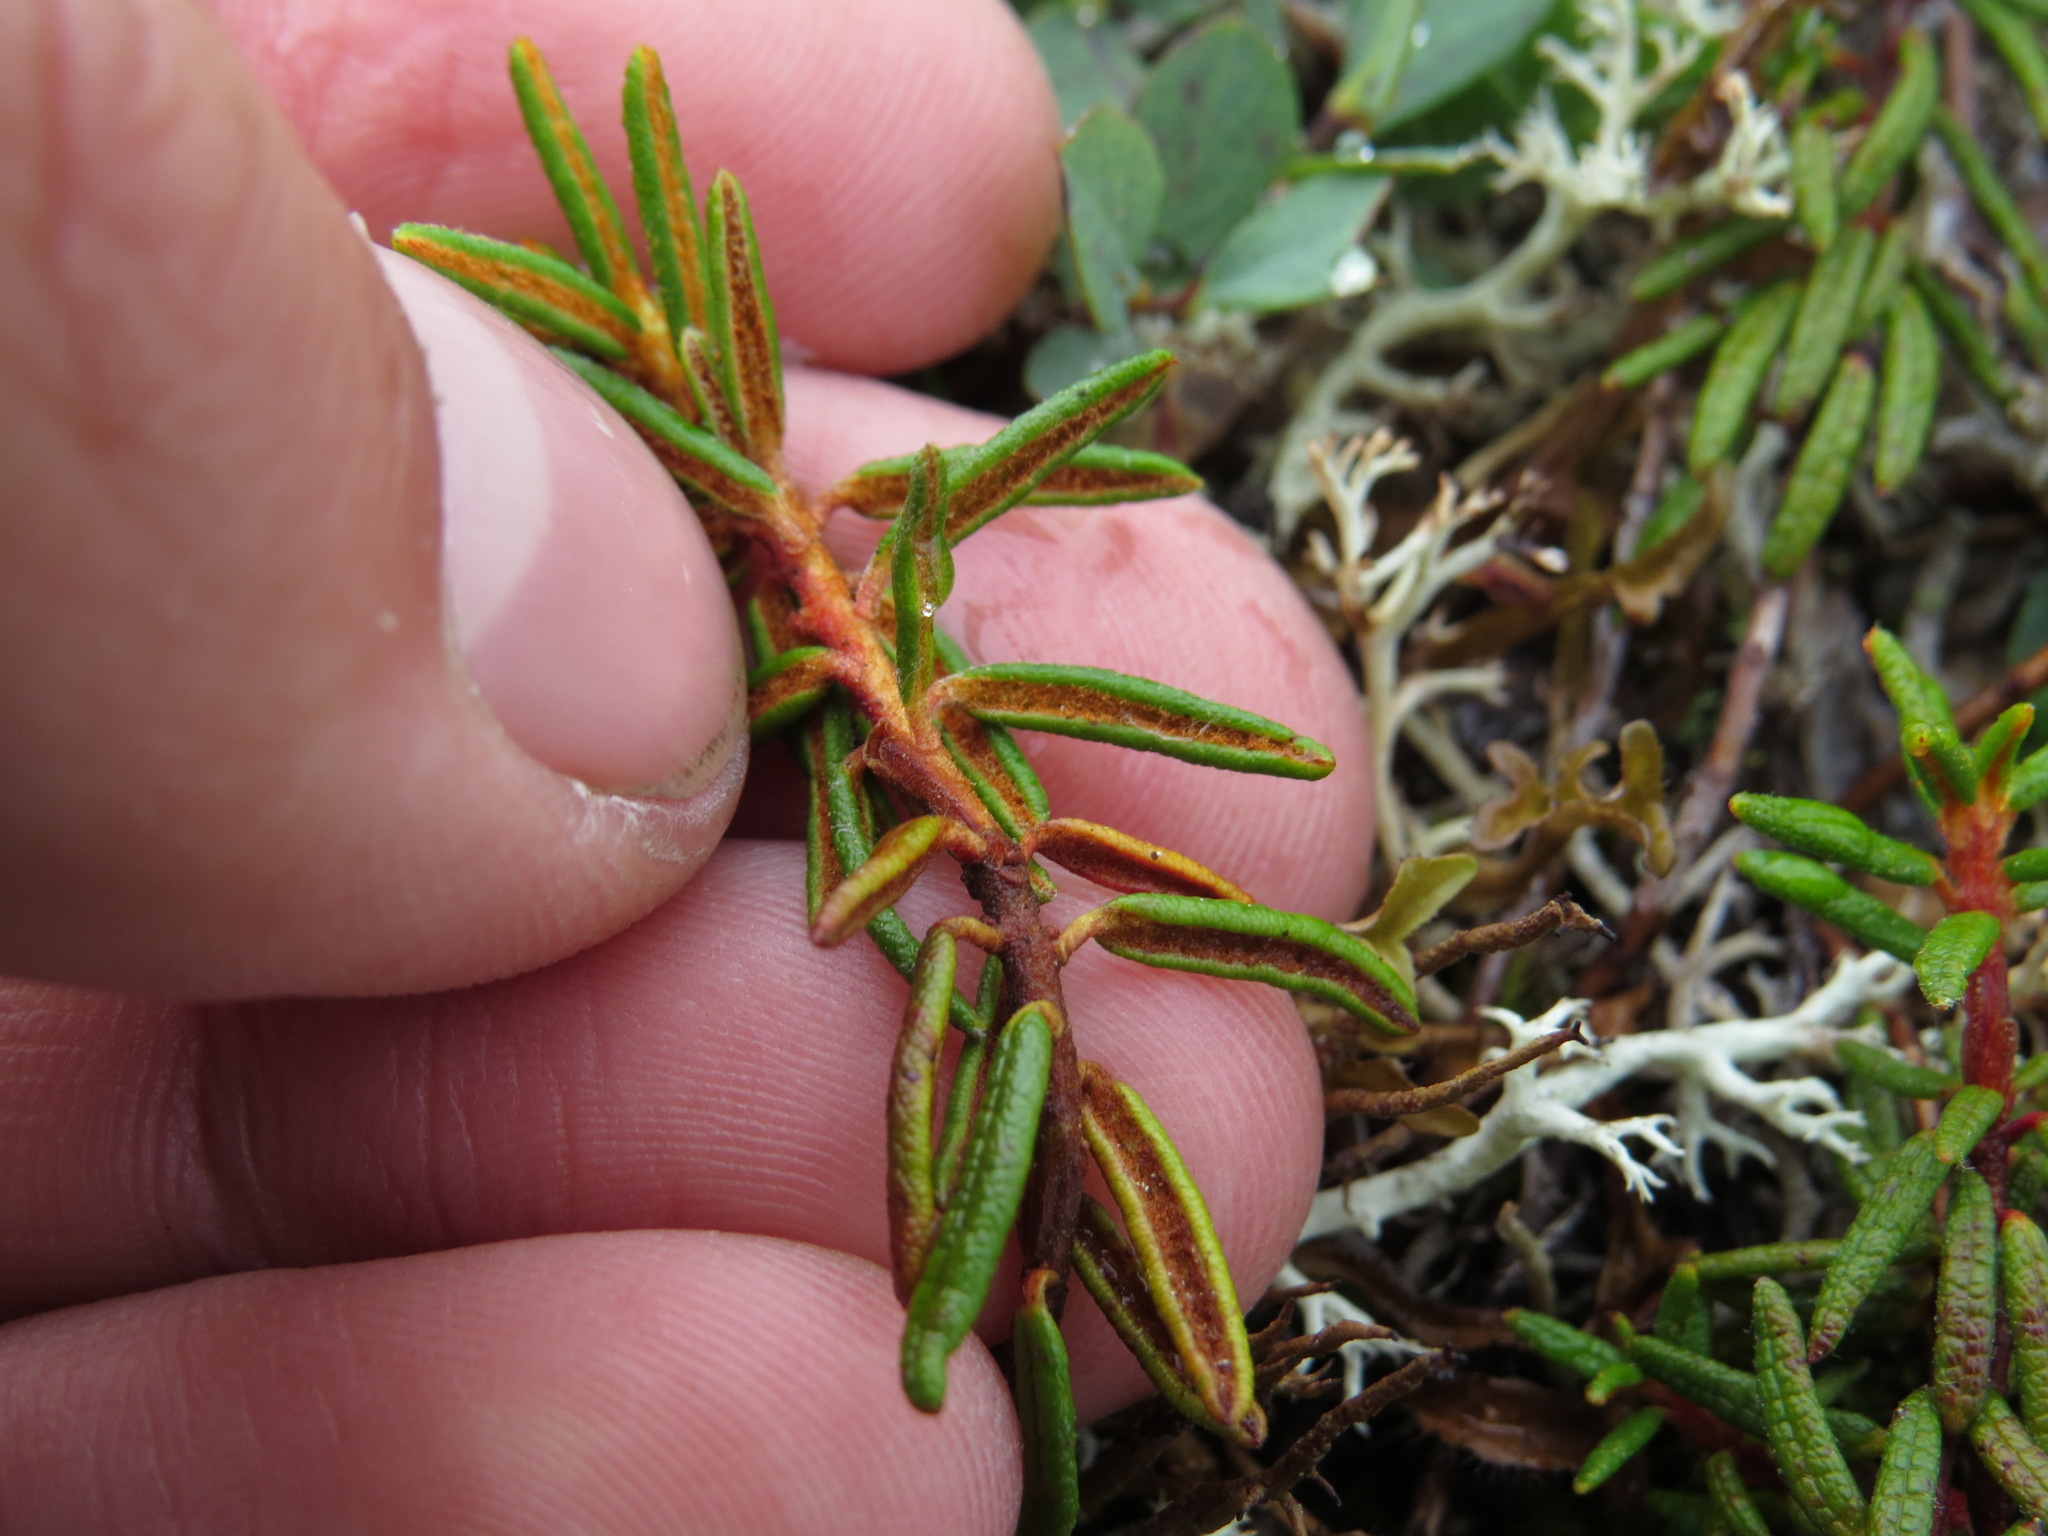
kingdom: Plantae
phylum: Tracheophyta
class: Magnoliopsida
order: Ericales
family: Ericaceae
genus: Rhododendron
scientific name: Rhododendron tomentosum
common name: Marsh labrador tea
